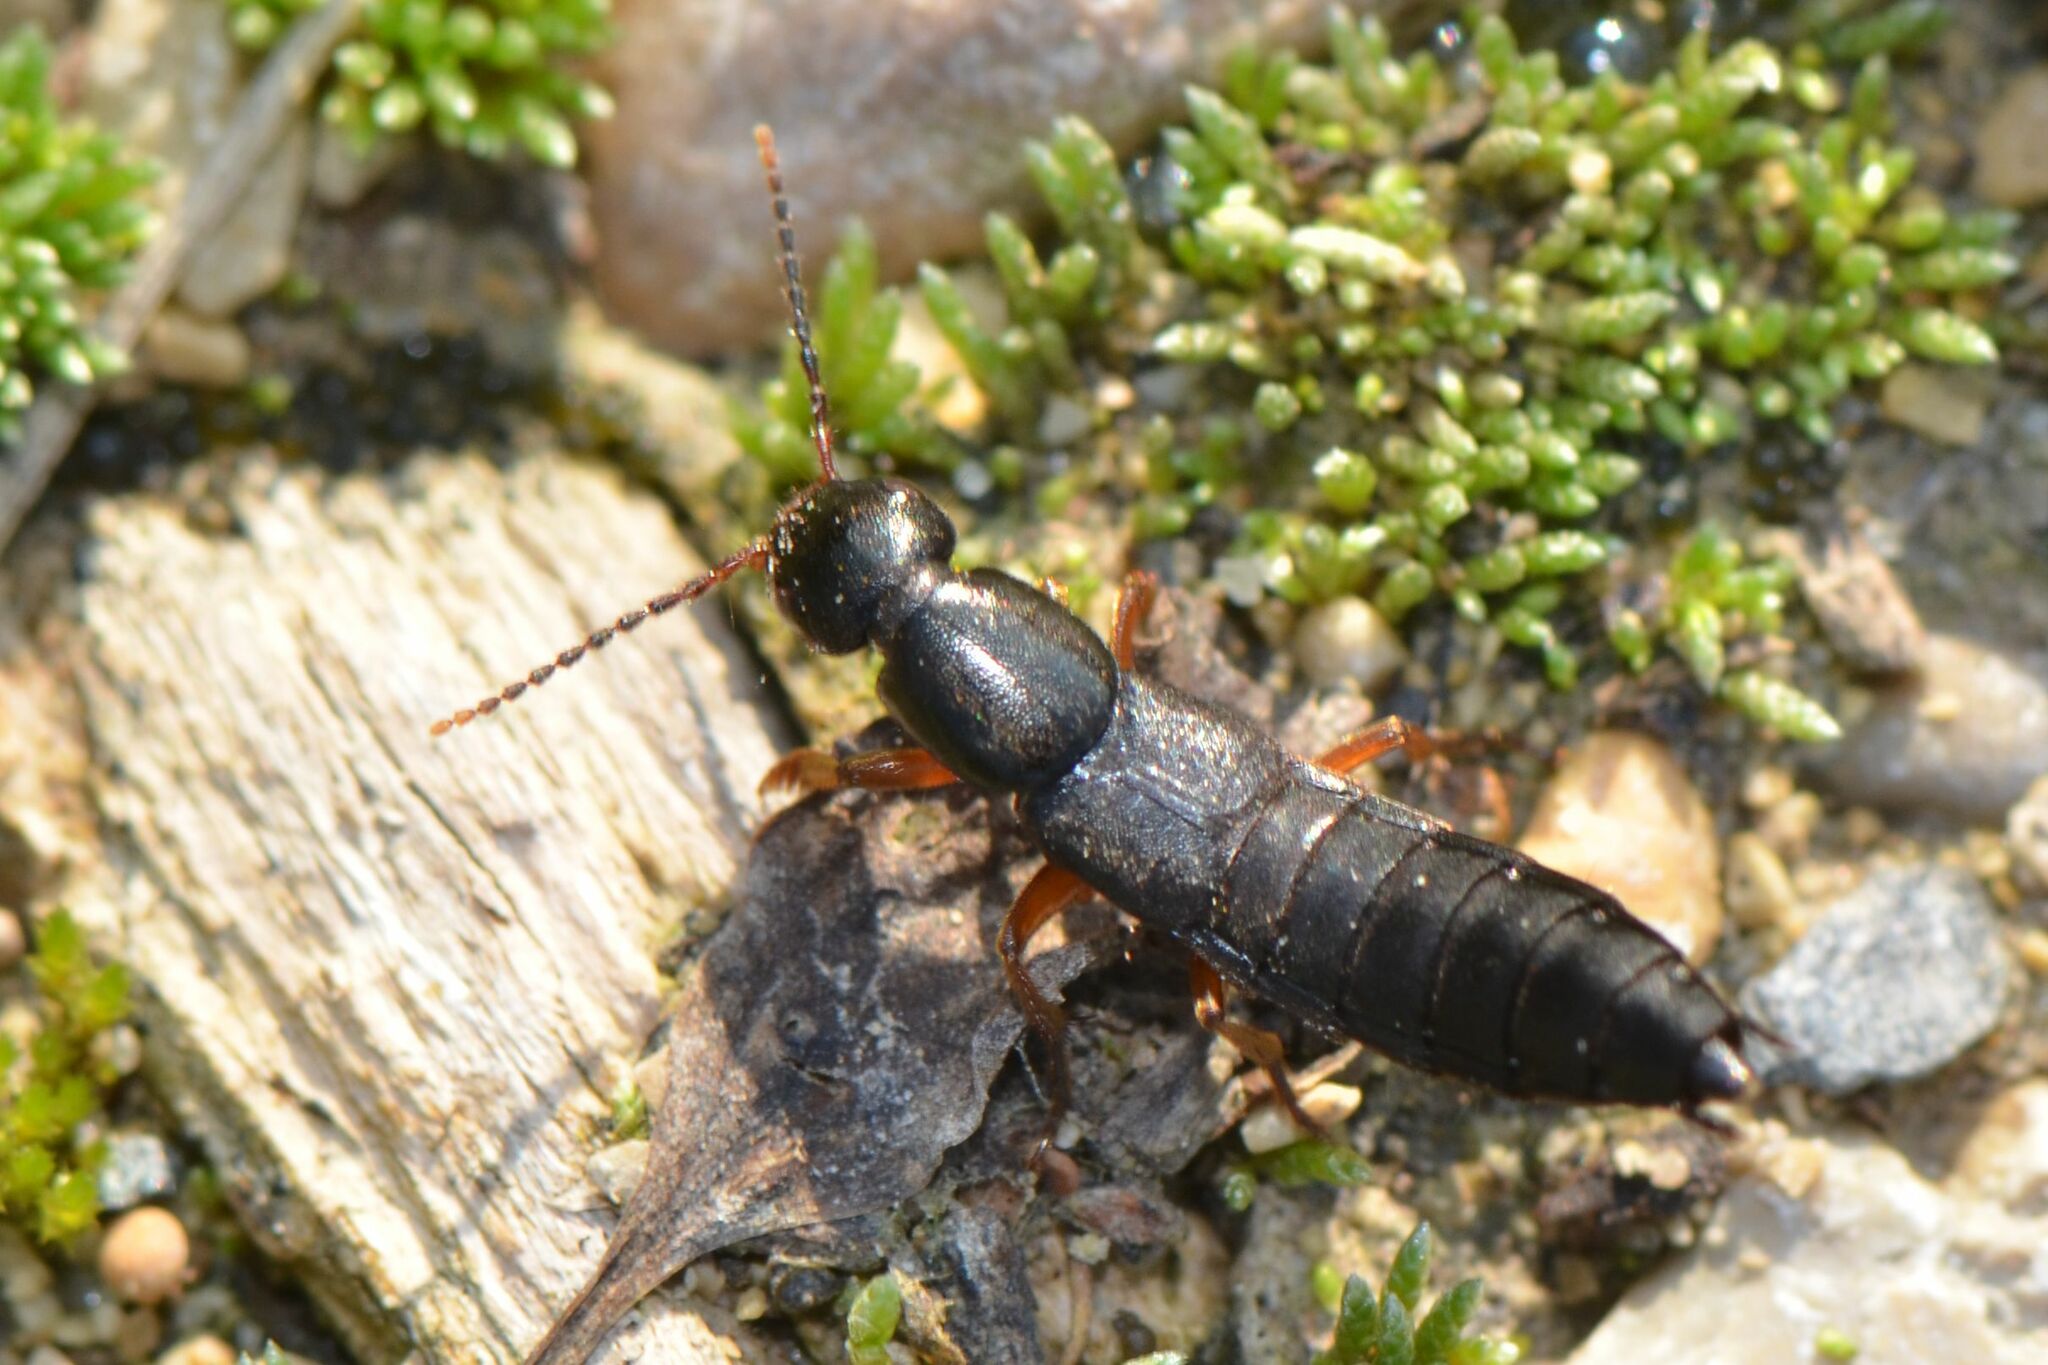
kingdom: Animalia
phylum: Arthropoda
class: Insecta
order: Coleoptera
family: Staphylinidae
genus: Ocypus
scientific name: Ocypus brunnipes
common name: Rove beetle
